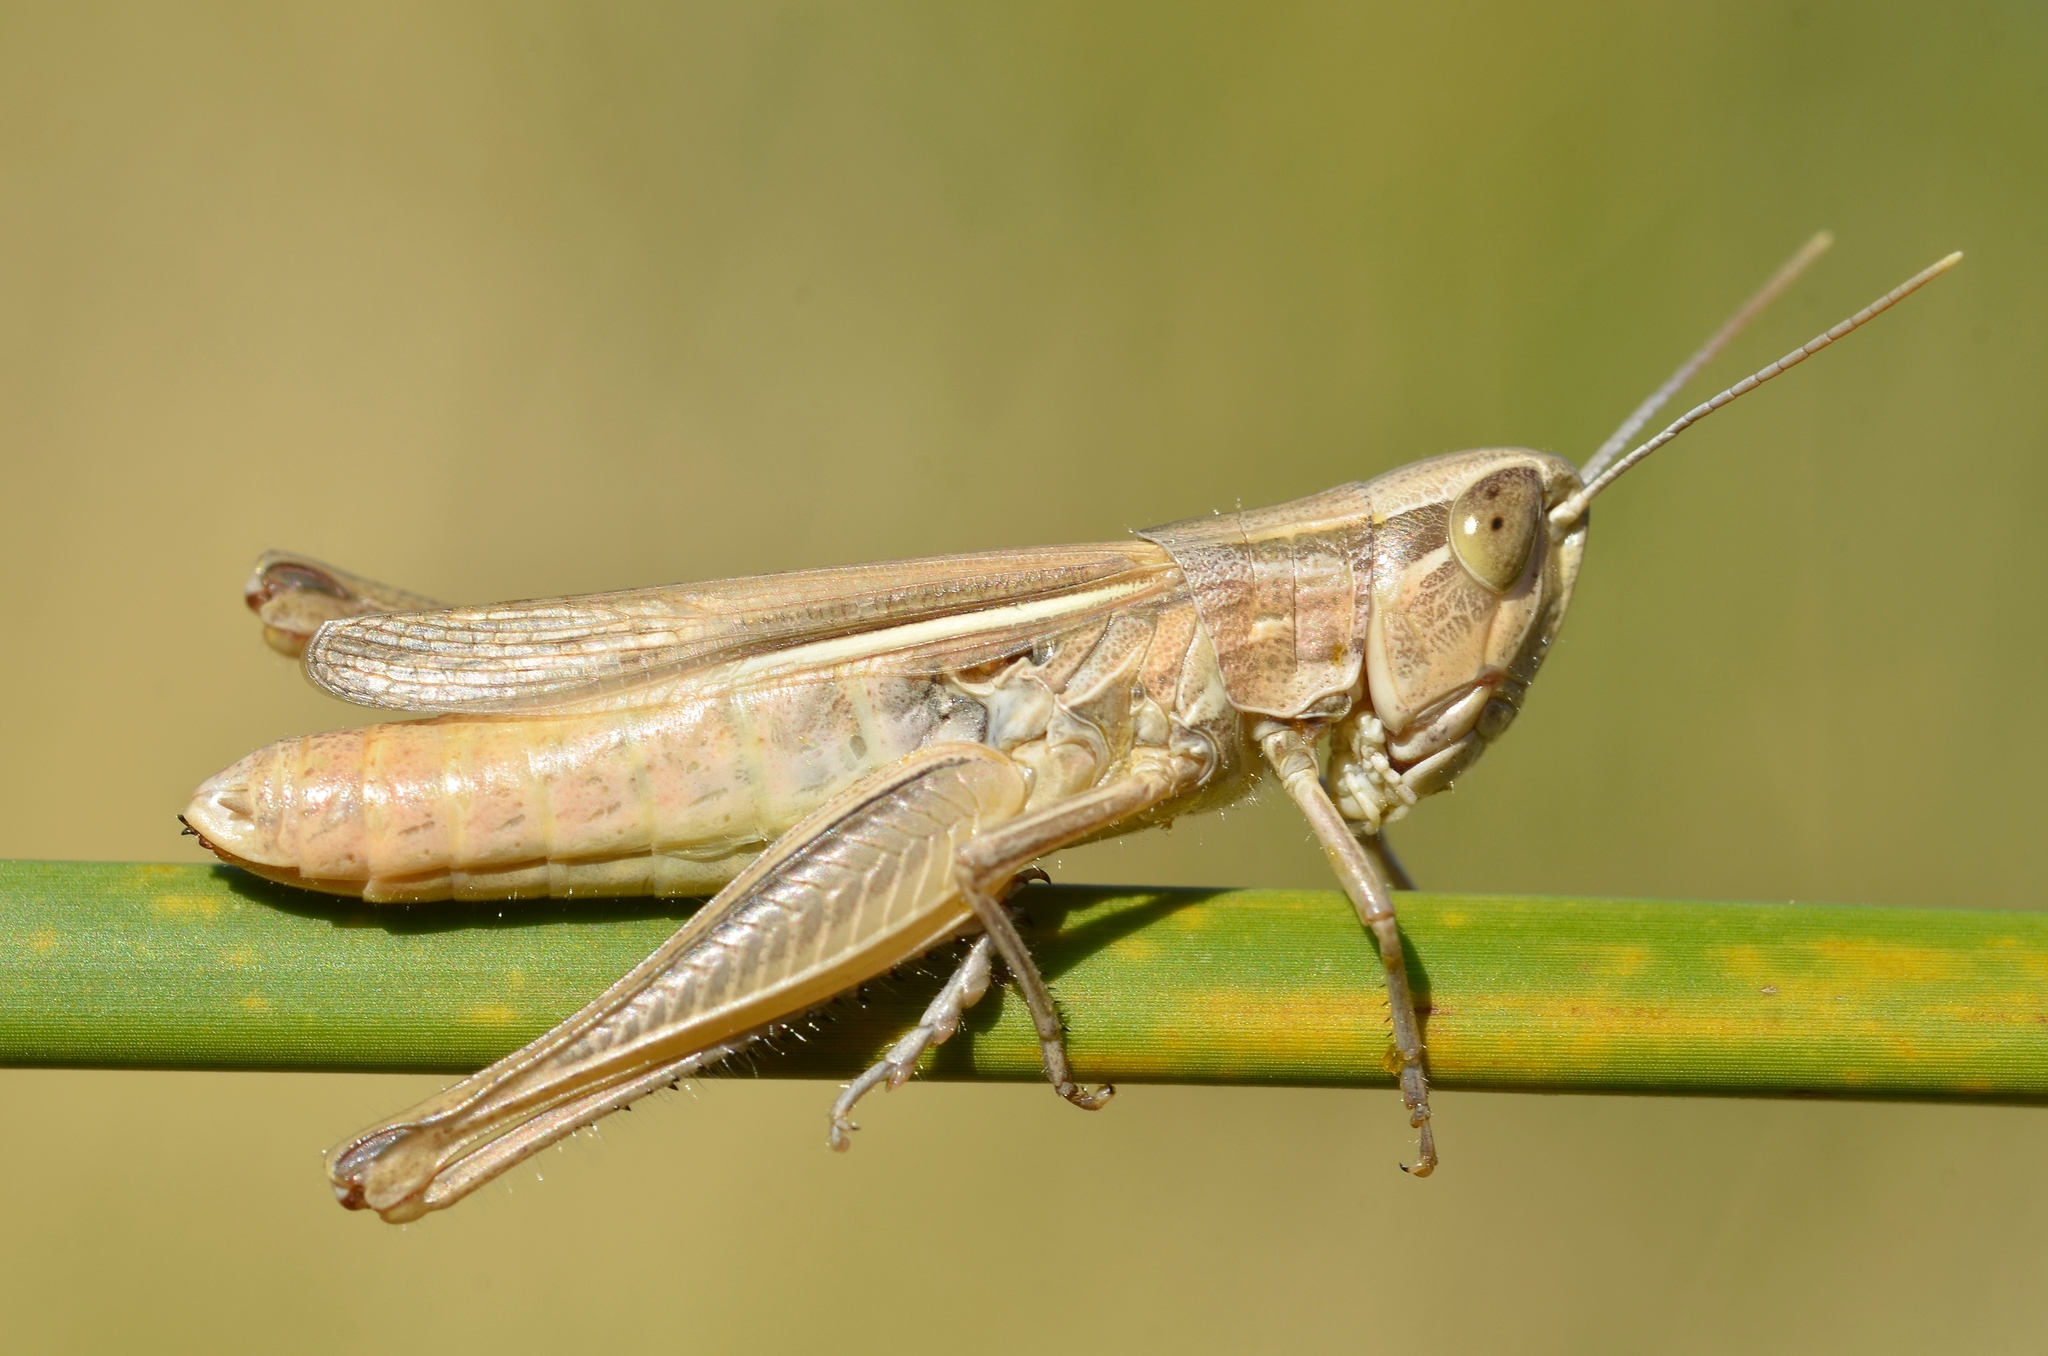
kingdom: Animalia
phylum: Arthropoda
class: Insecta
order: Orthoptera
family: Acrididae
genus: Euchorthippus
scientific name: Euchorthippus elegantulus
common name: Elegant straw grasshopper
